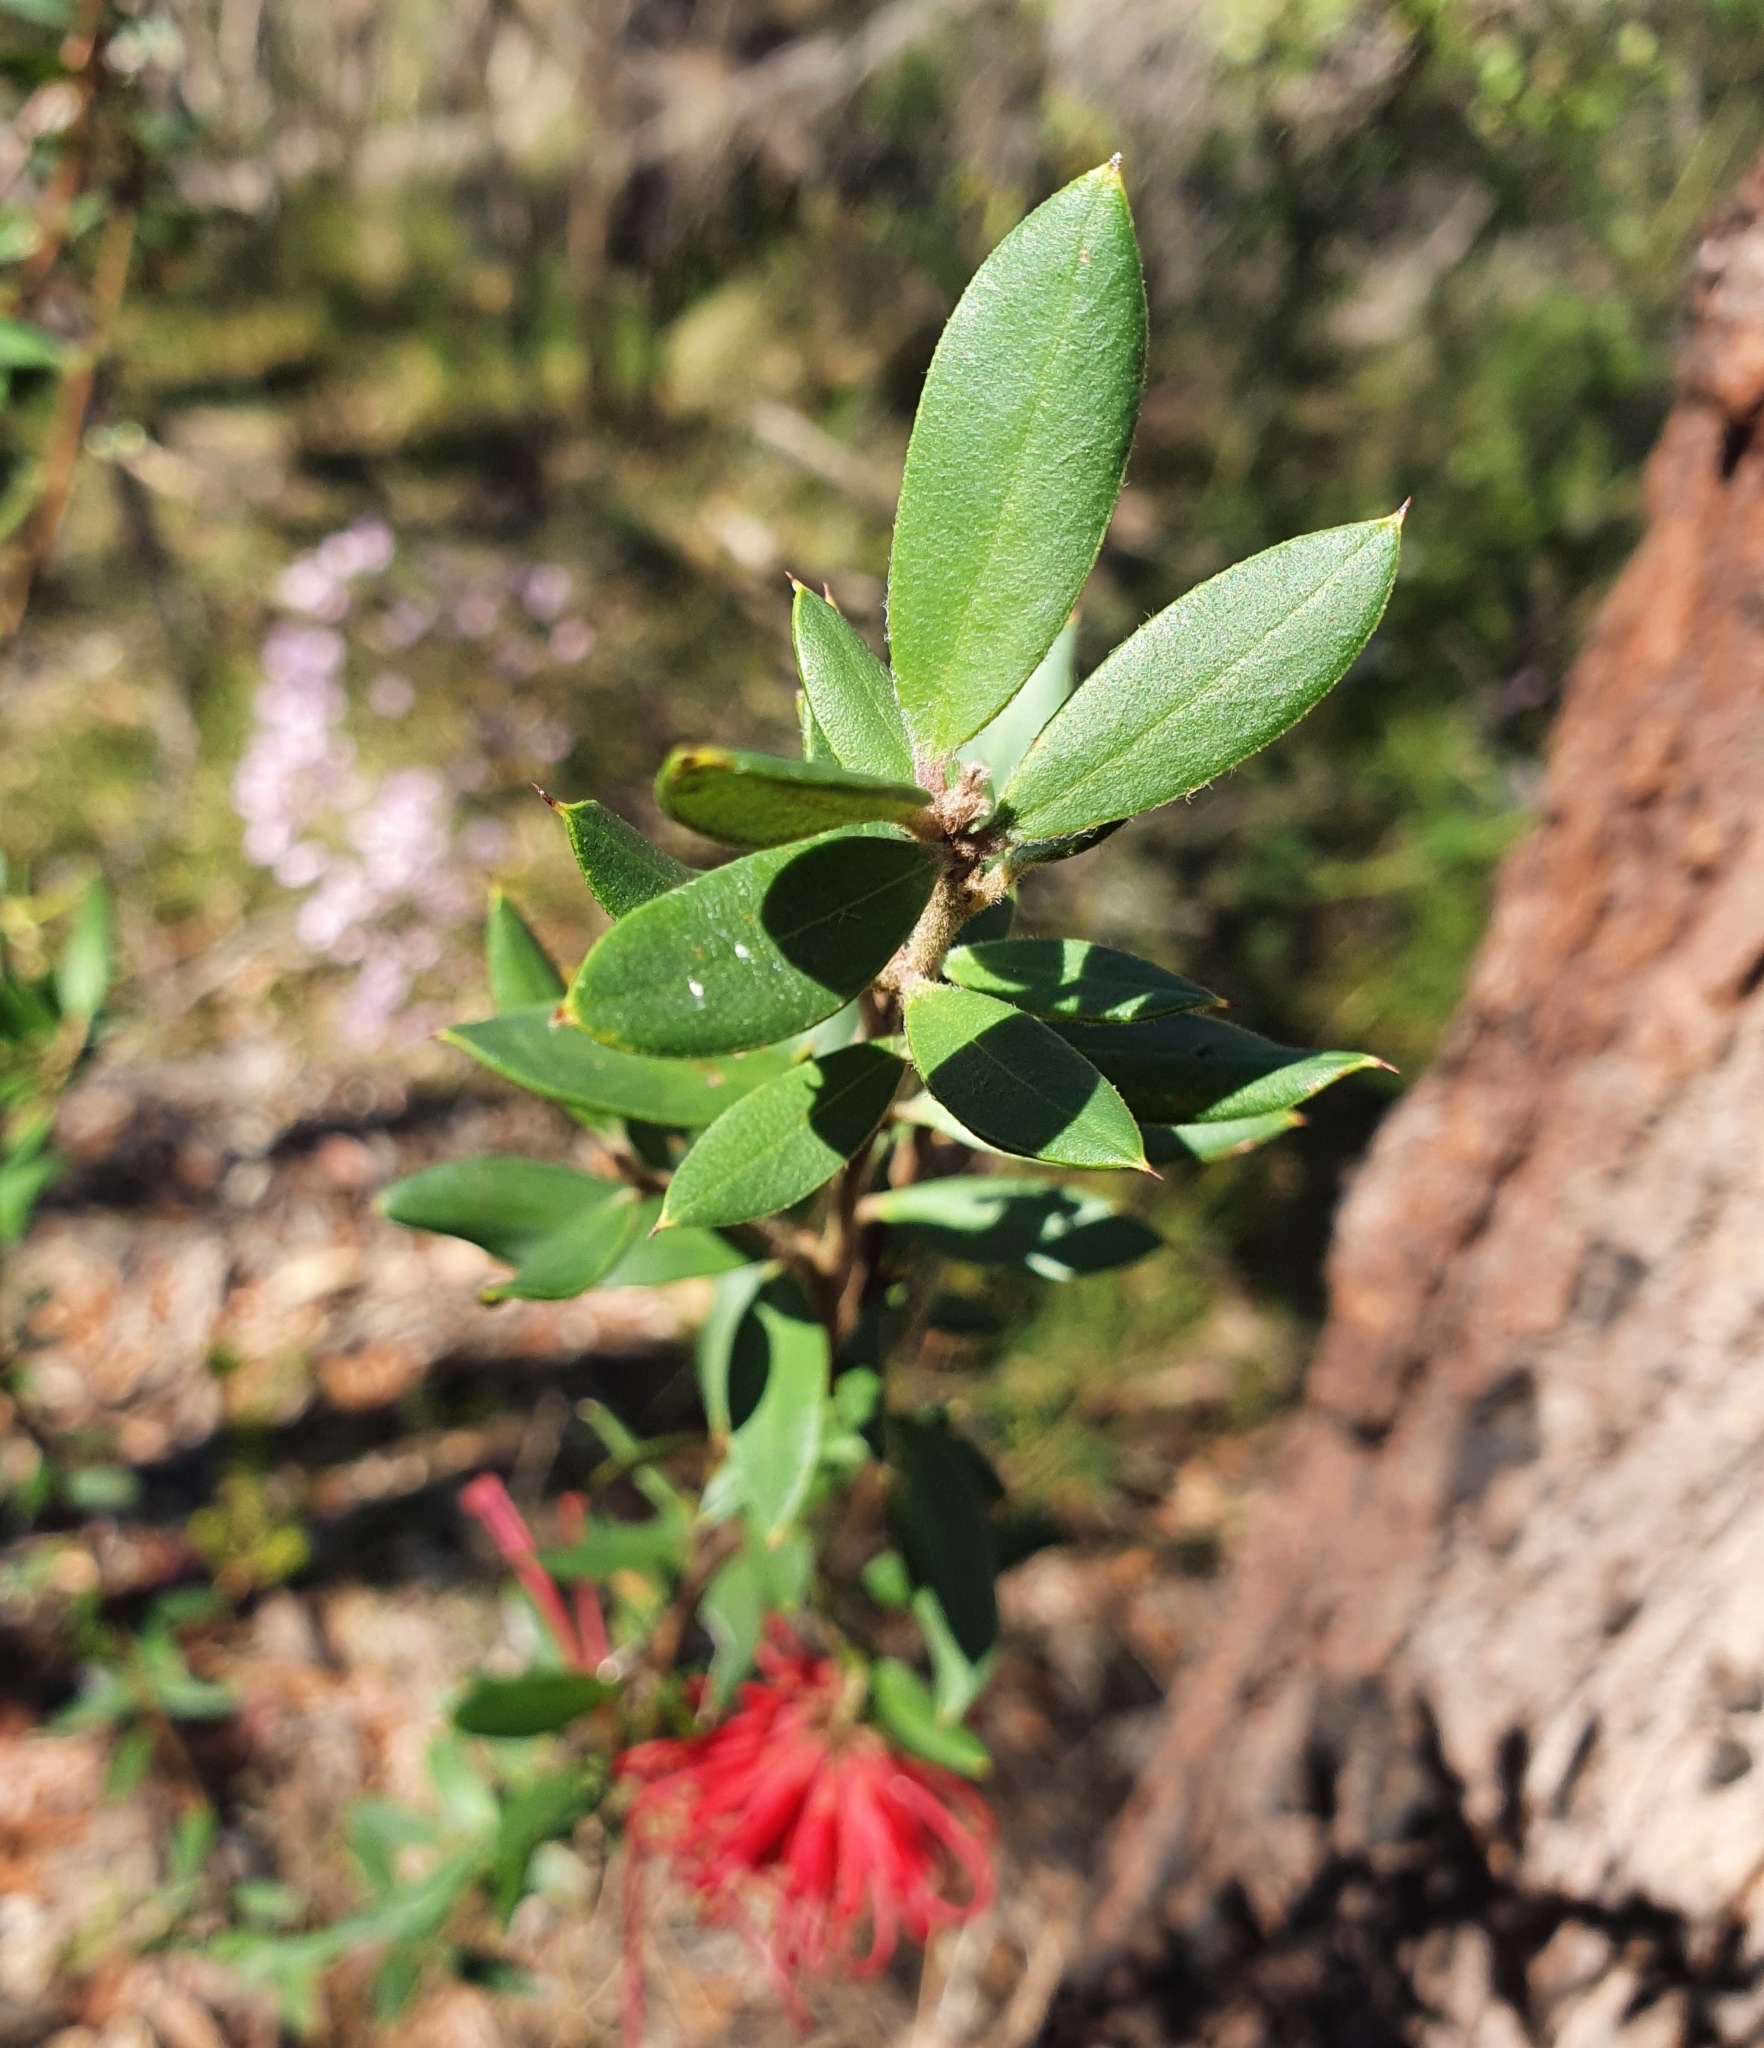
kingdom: Plantae
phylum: Tracheophyta
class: Magnoliopsida
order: Proteales
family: Proteaceae
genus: Grevillea
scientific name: Grevillea speciosa
